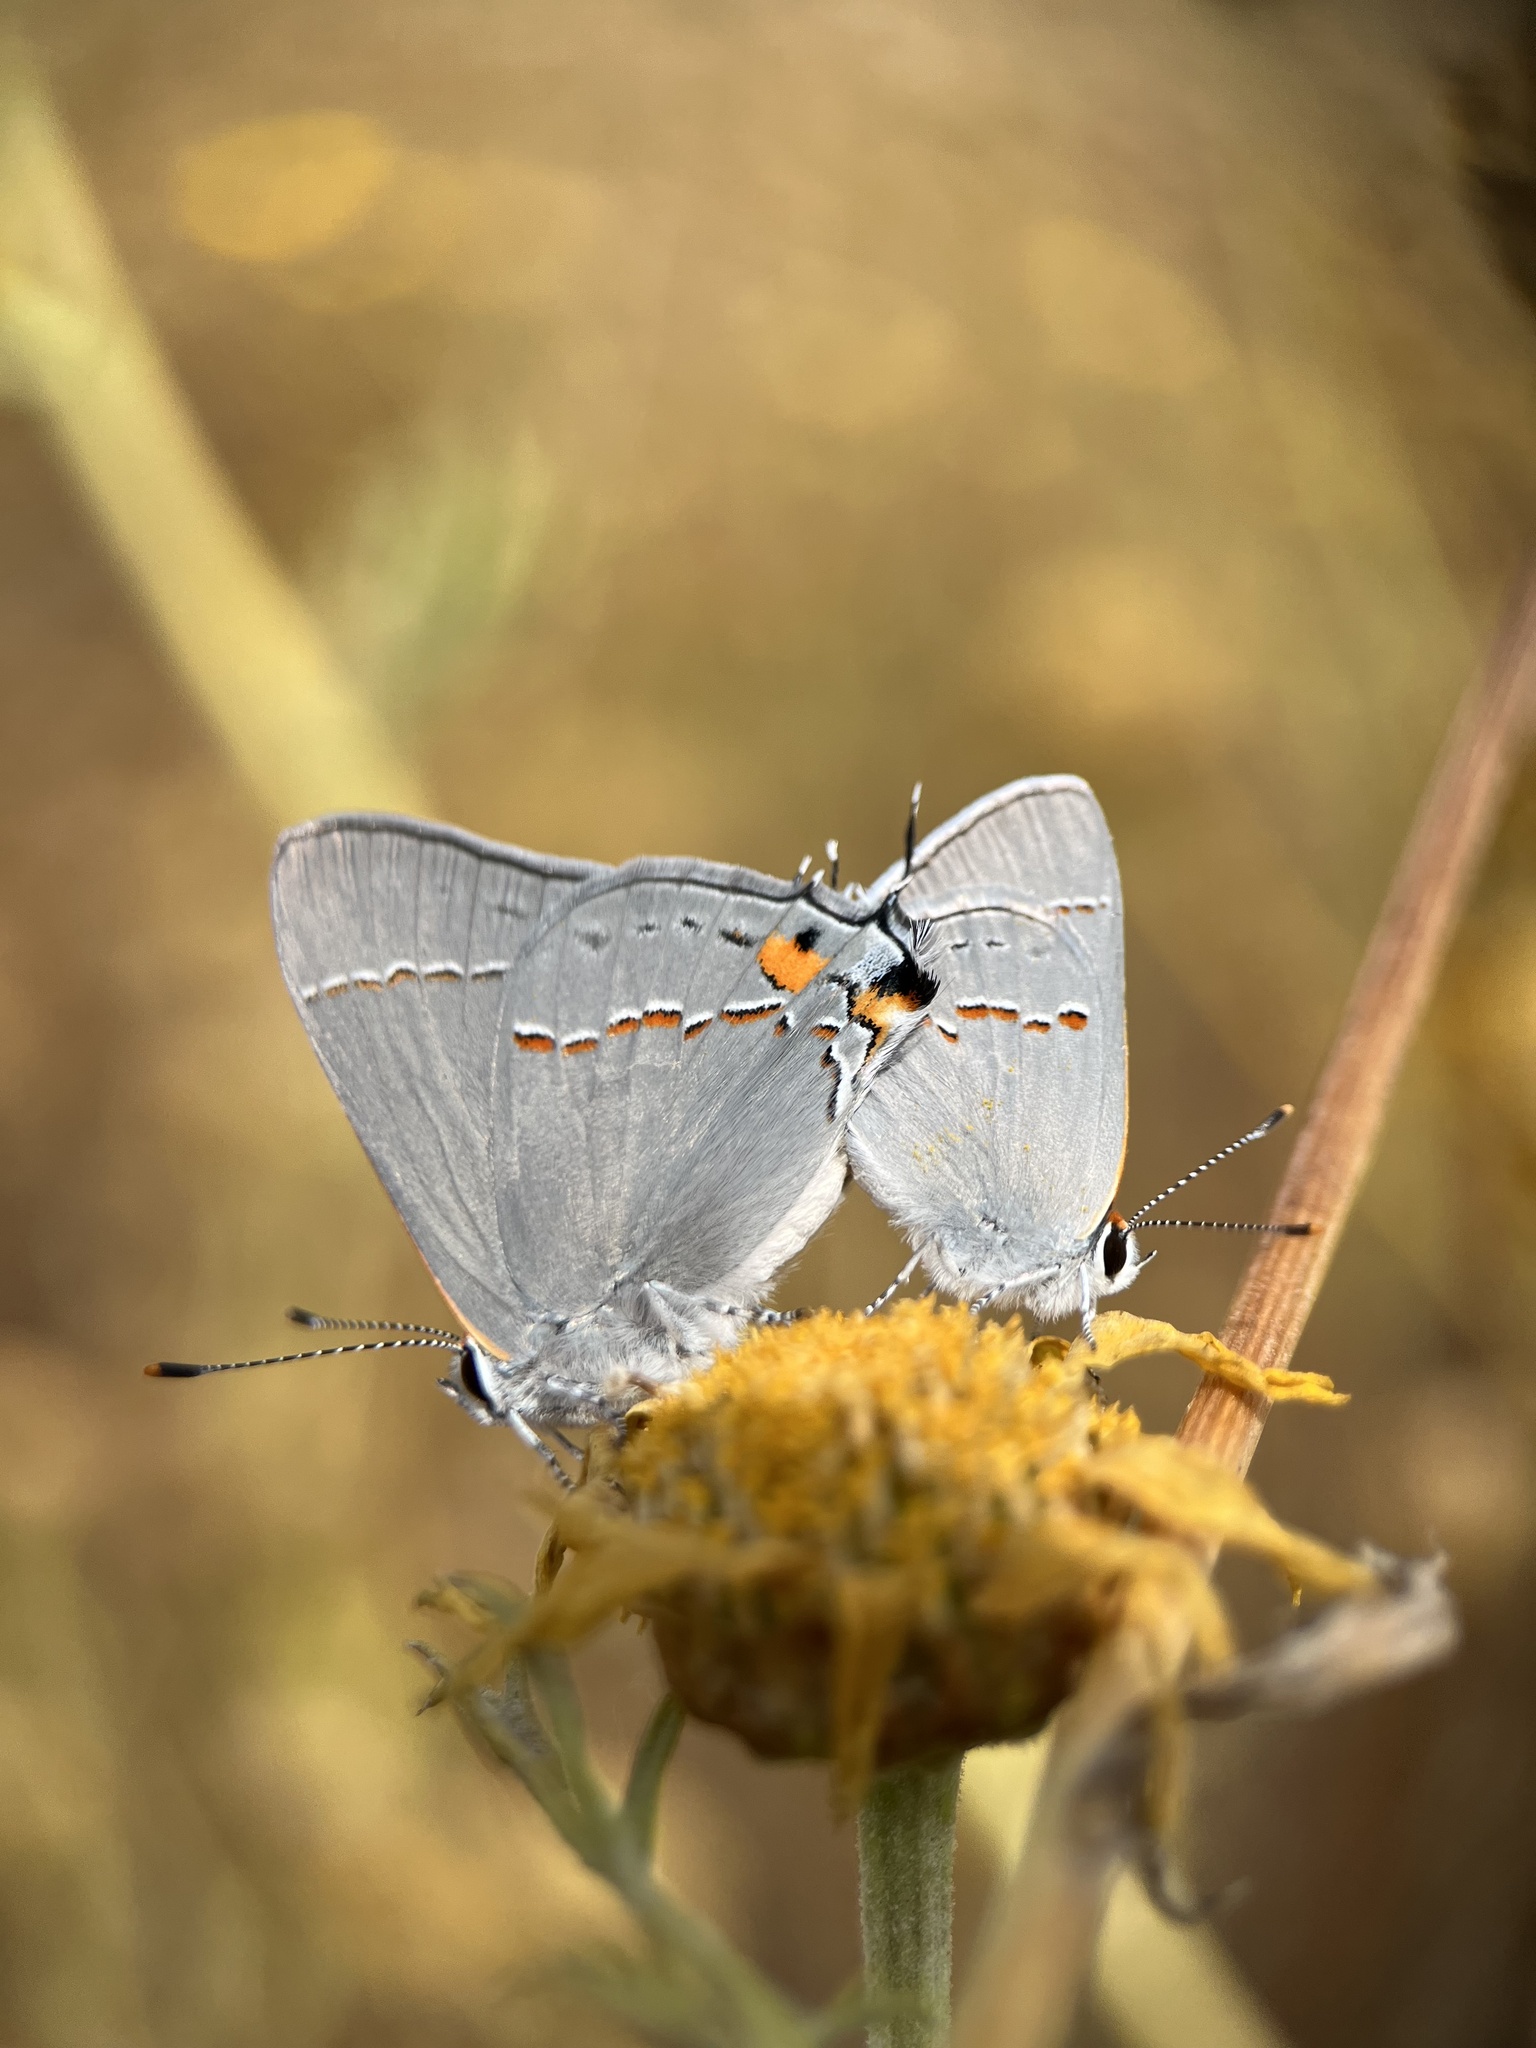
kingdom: Animalia
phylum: Arthropoda
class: Insecta
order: Lepidoptera
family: Lycaenidae
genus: Strymon
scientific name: Strymon melinus
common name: Gray hairstreak
